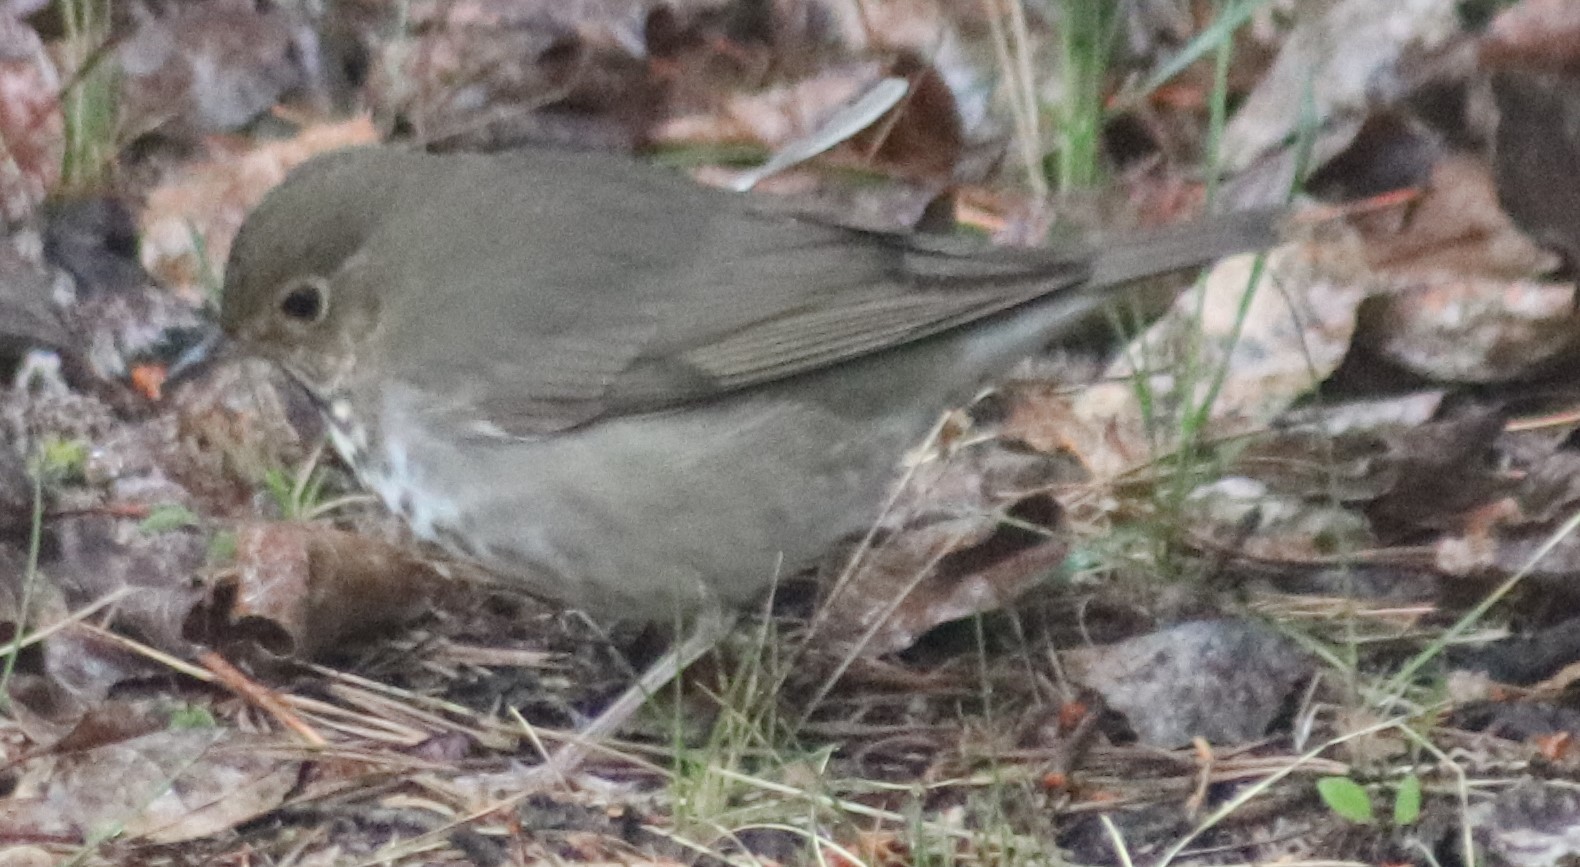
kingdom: Animalia
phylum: Chordata
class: Aves
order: Passeriformes
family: Turdidae
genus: Catharus
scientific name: Catharus ustulatus
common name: Swainson's thrush
